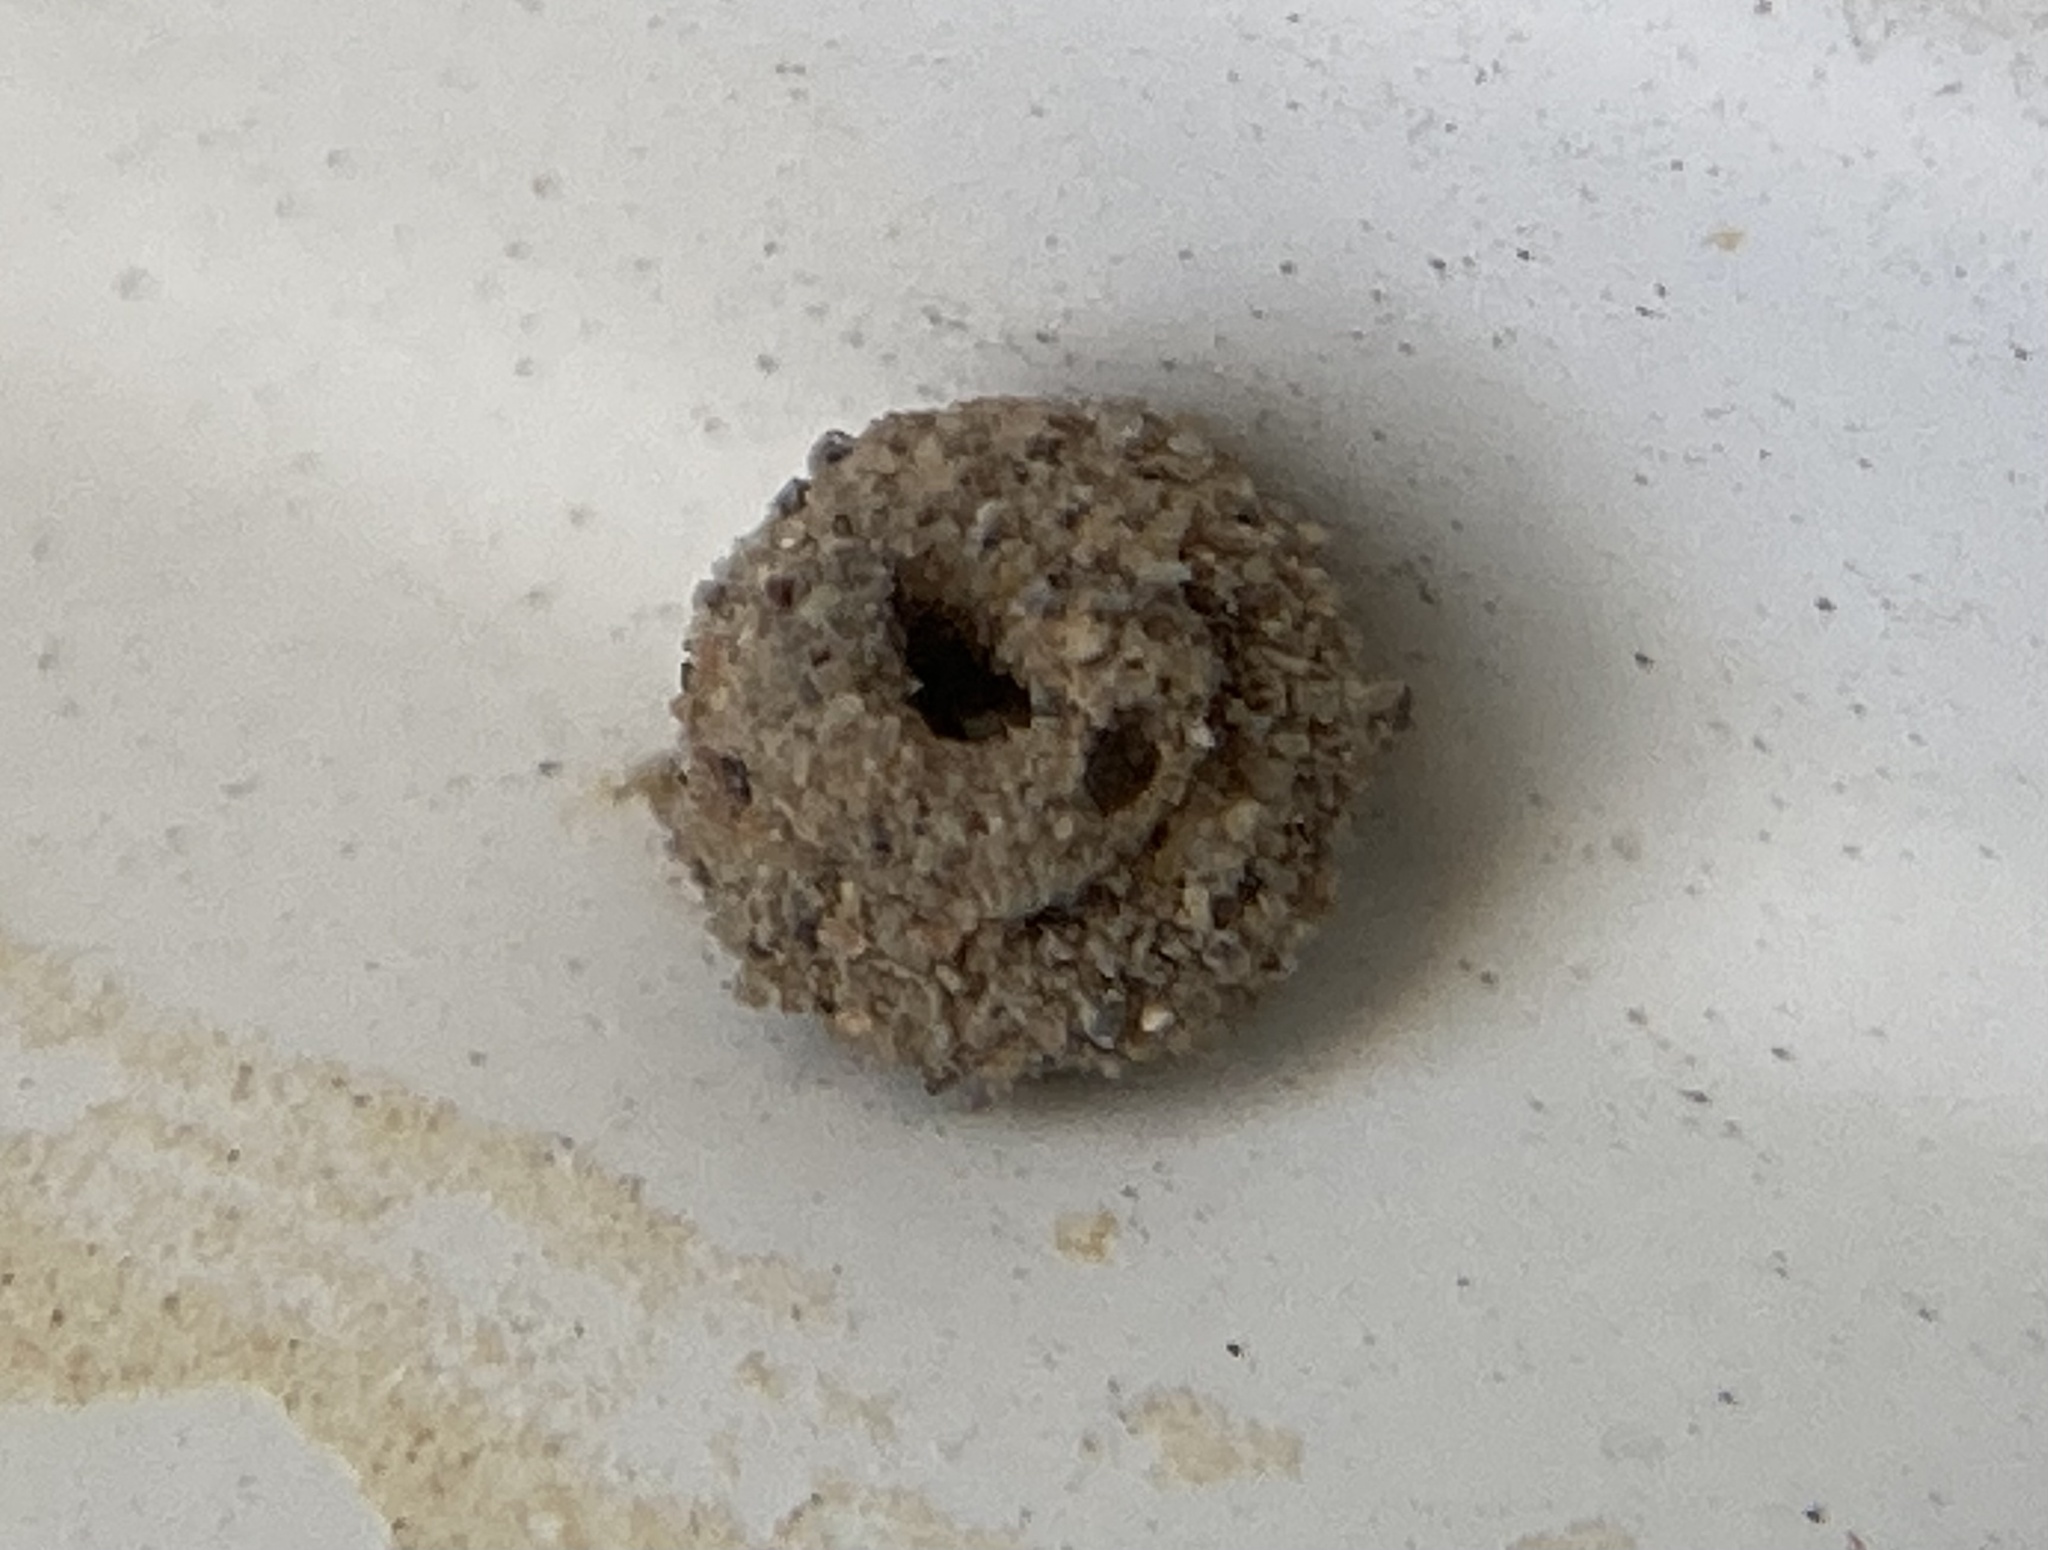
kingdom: Animalia
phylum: Arthropoda
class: Insecta
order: Lepidoptera
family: Psychidae
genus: Apterona
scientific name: Apterona helicoidella
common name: Moth
